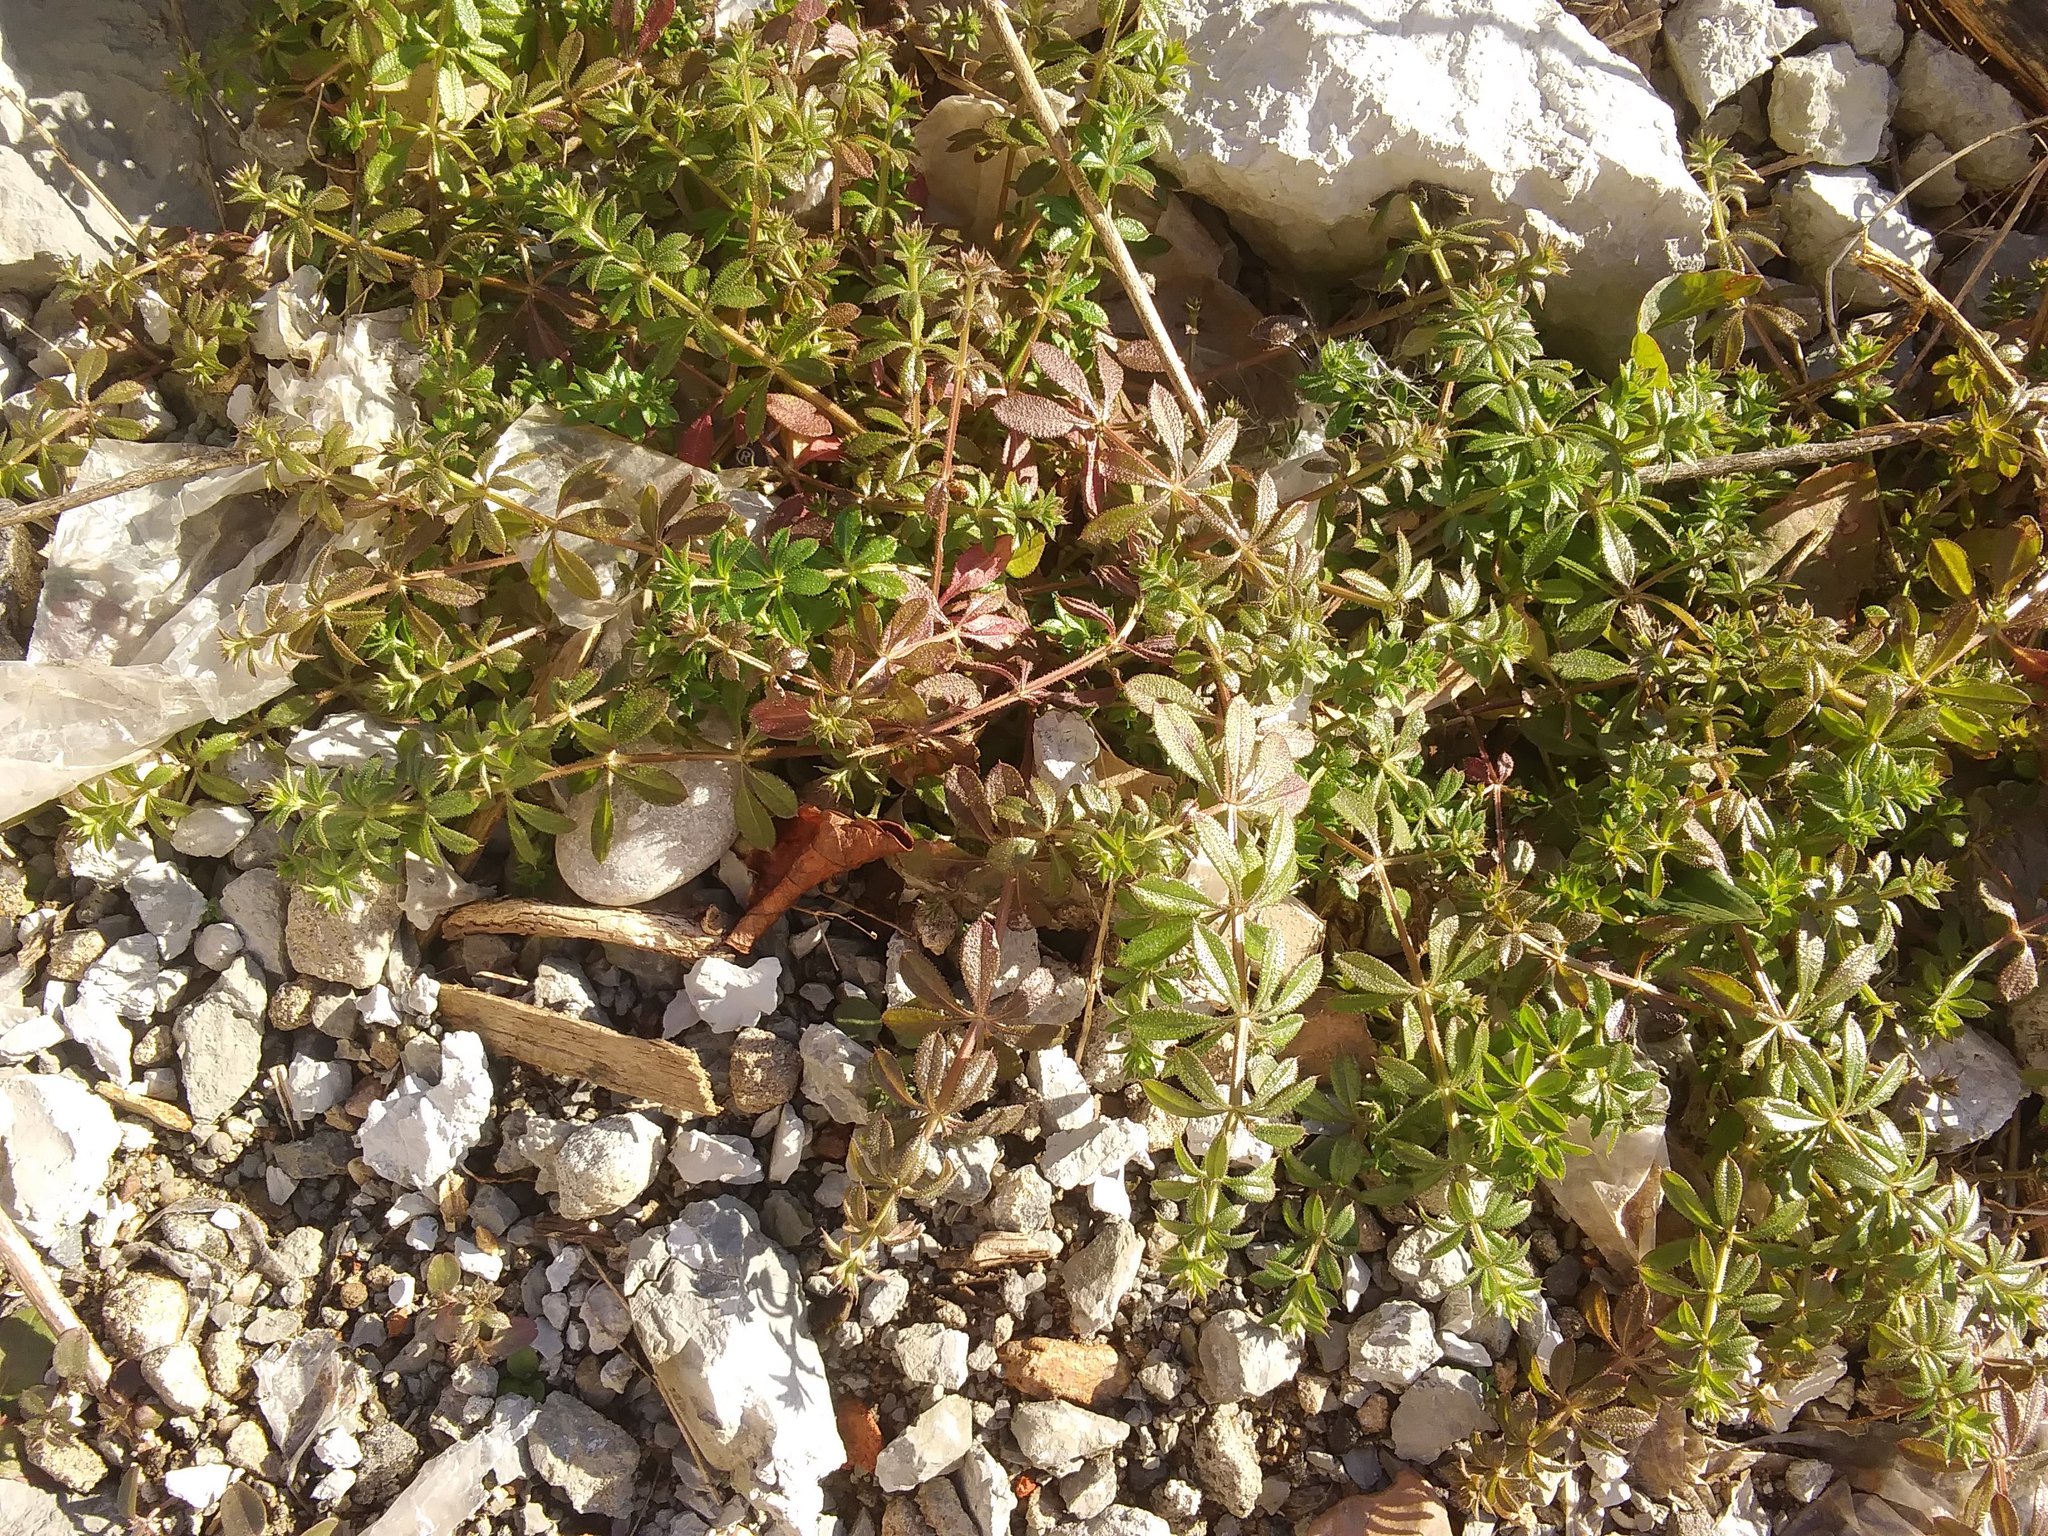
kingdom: Plantae
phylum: Tracheophyta
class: Magnoliopsida
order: Gentianales
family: Rubiaceae
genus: Galium
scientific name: Galium aparine
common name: Cleavers
